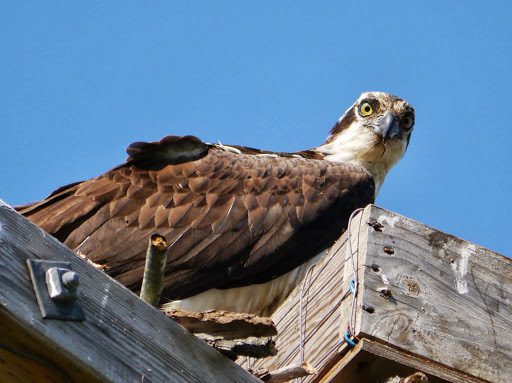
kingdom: Animalia
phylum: Chordata
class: Aves
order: Accipitriformes
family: Pandionidae
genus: Pandion
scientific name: Pandion haliaetus
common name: Osprey
